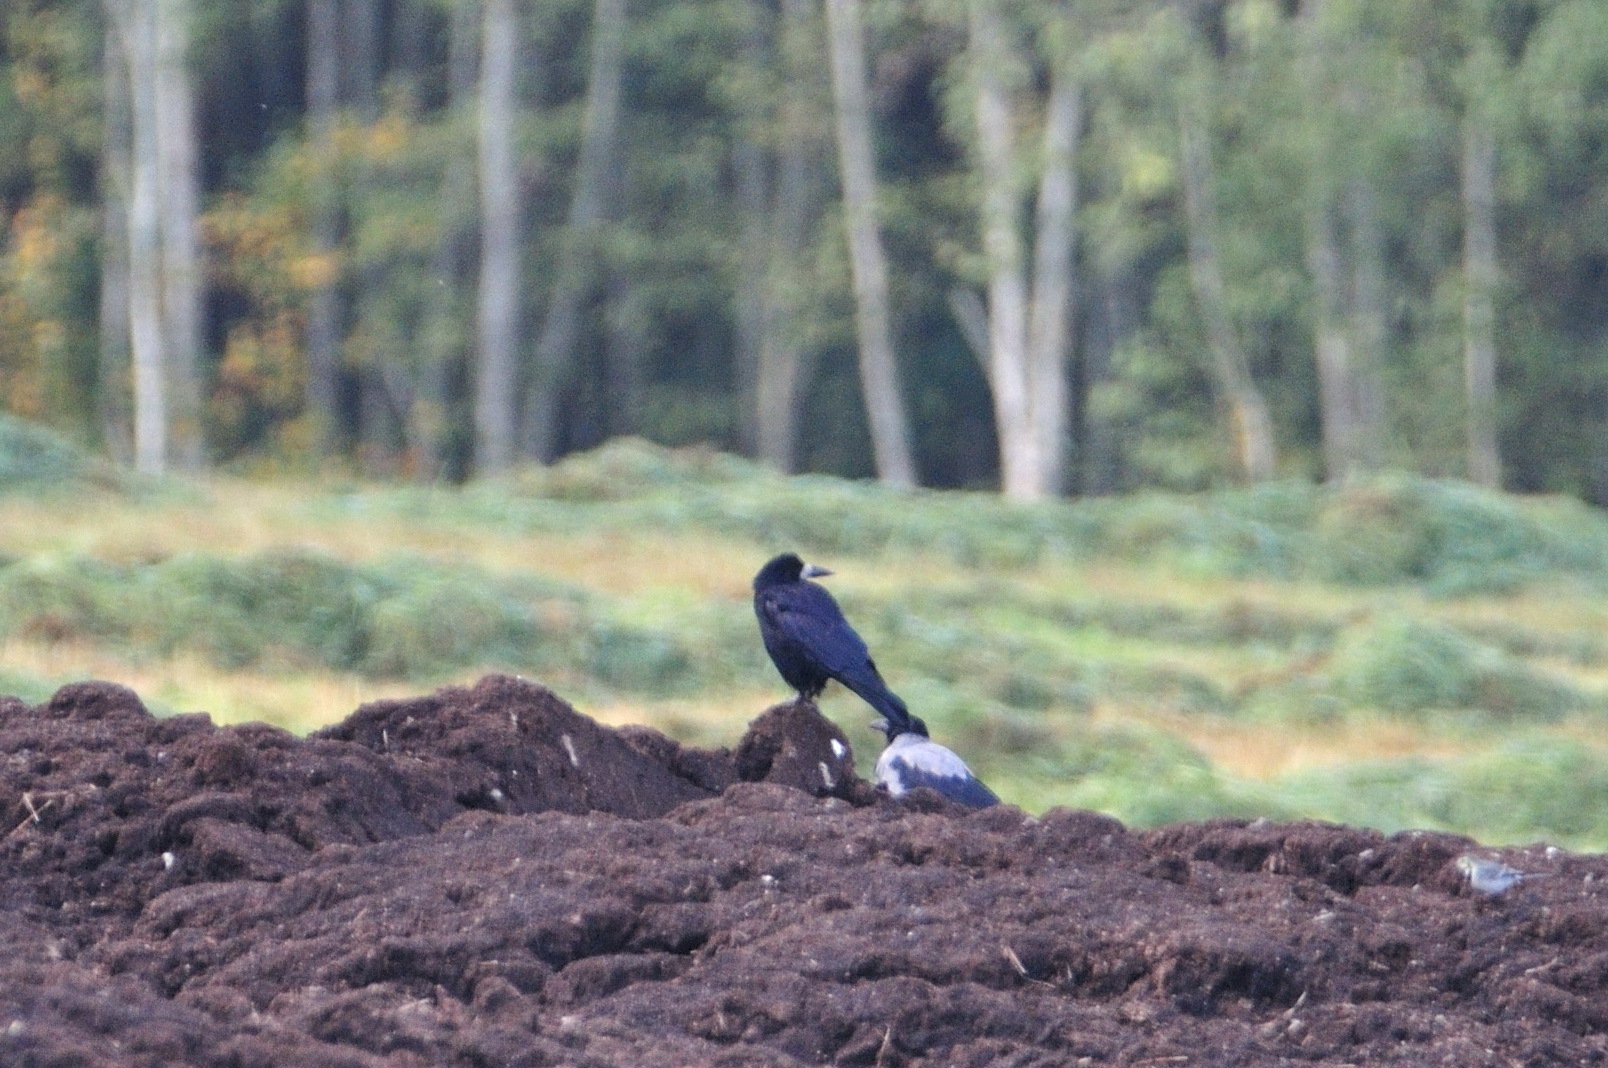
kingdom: Animalia
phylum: Chordata
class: Aves
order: Passeriformes
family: Corvidae
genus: Corvus
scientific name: Corvus frugilegus
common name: Rook
